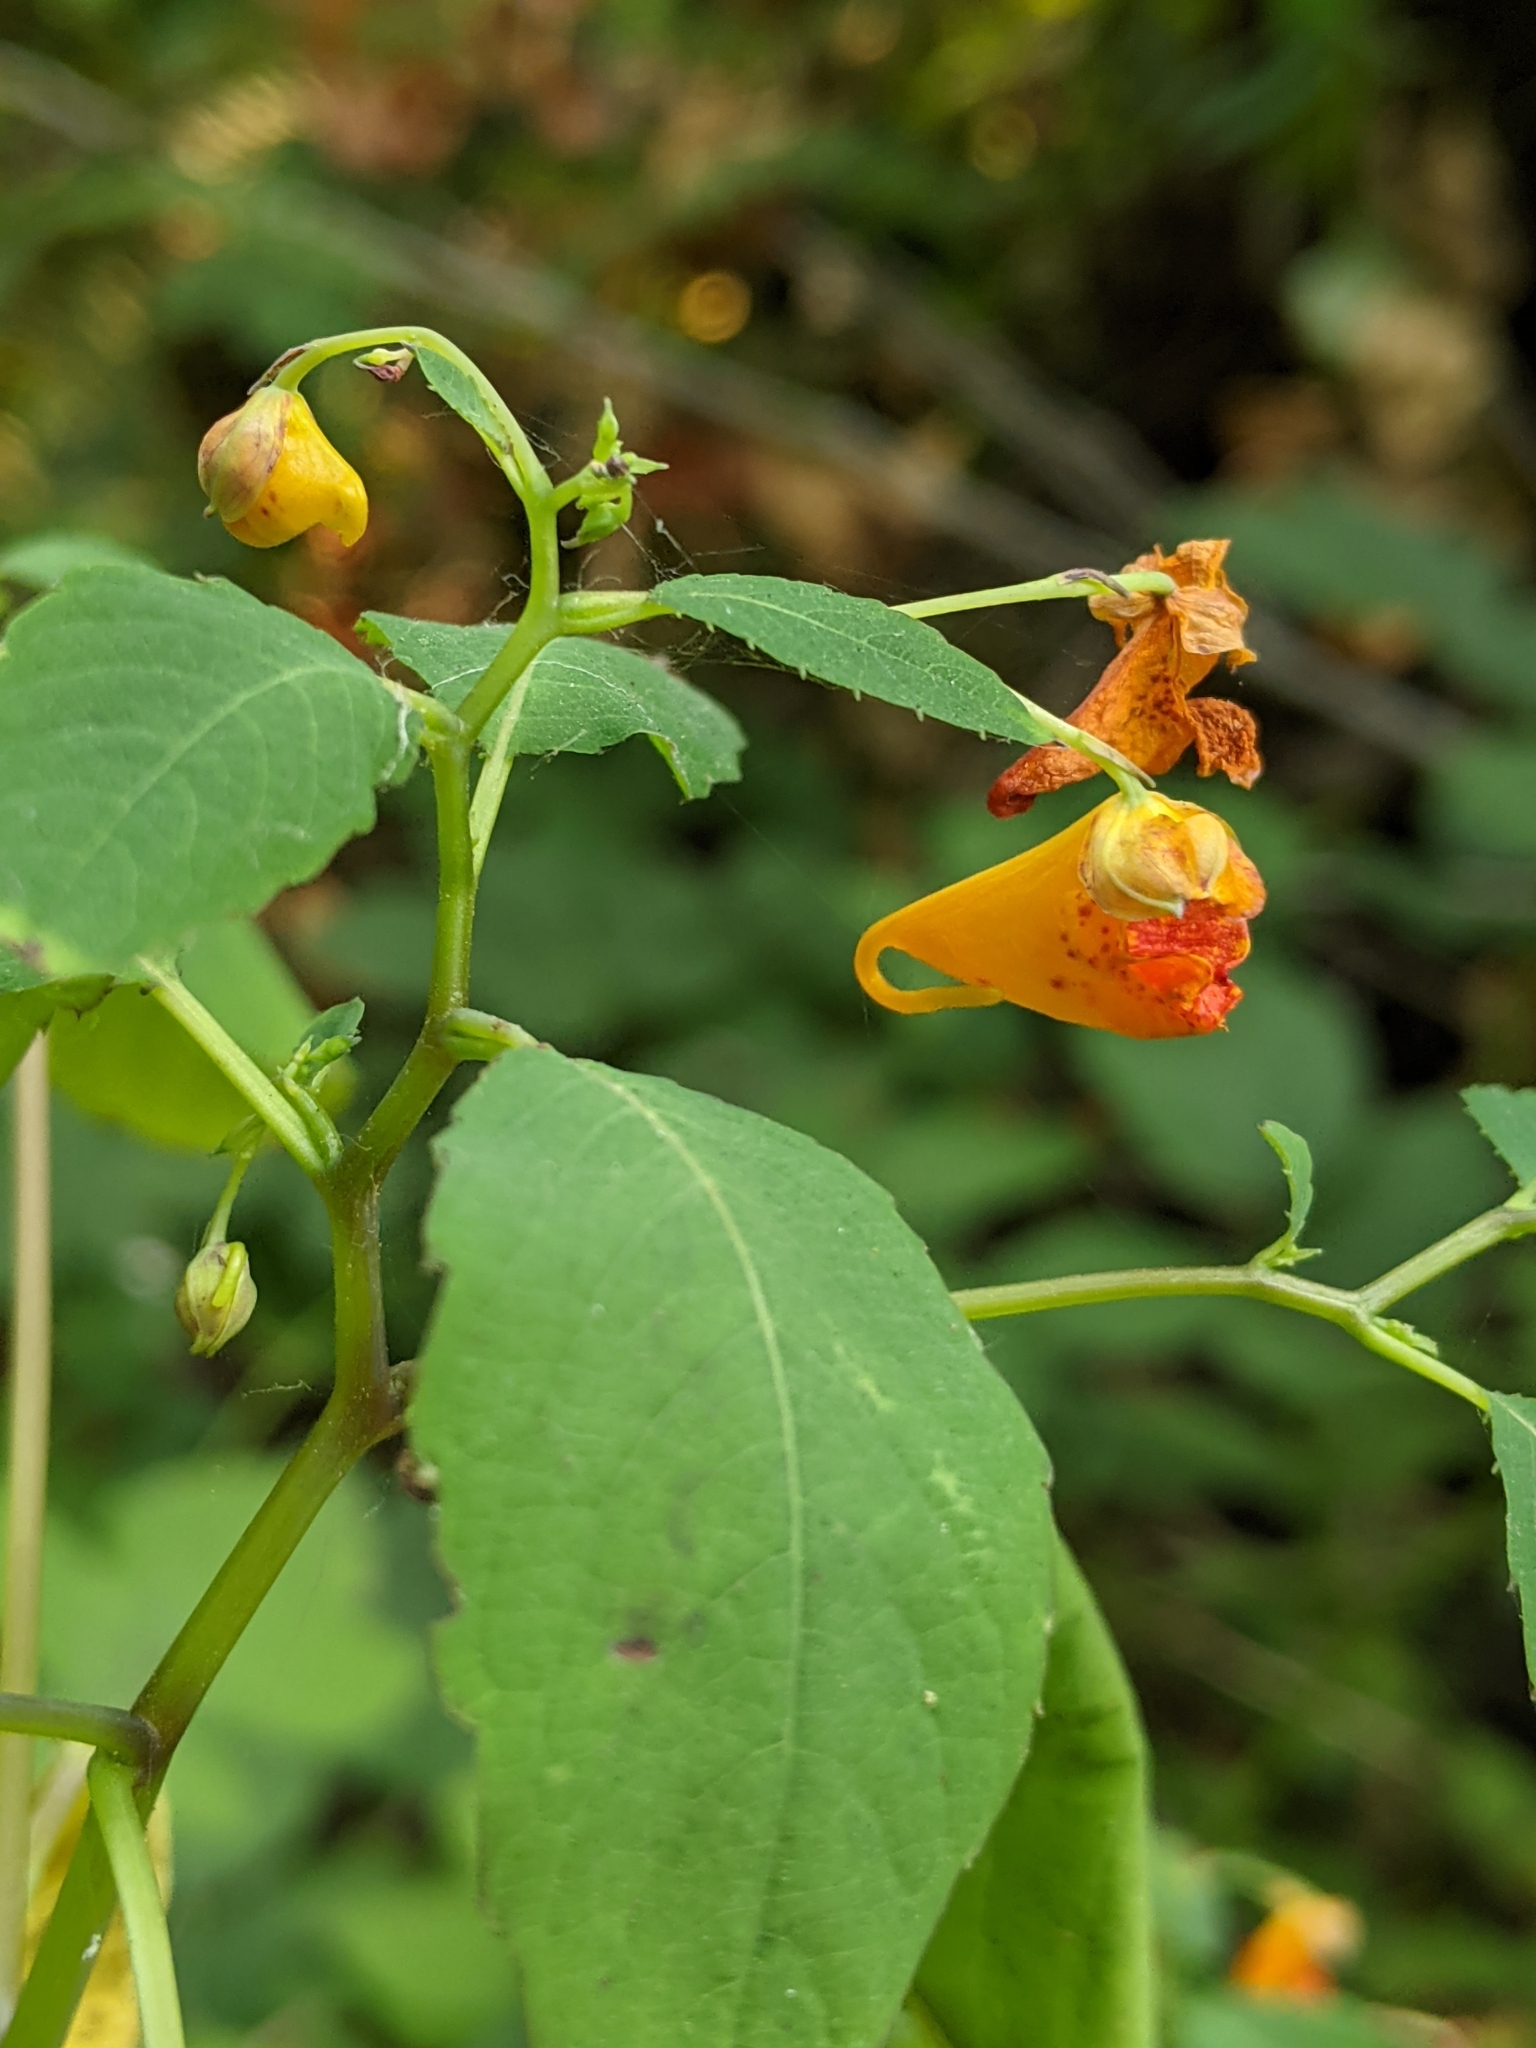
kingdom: Plantae
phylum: Tracheophyta
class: Magnoliopsida
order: Ericales
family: Balsaminaceae
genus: Impatiens
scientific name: Impatiens capensis
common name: Orange balsam
